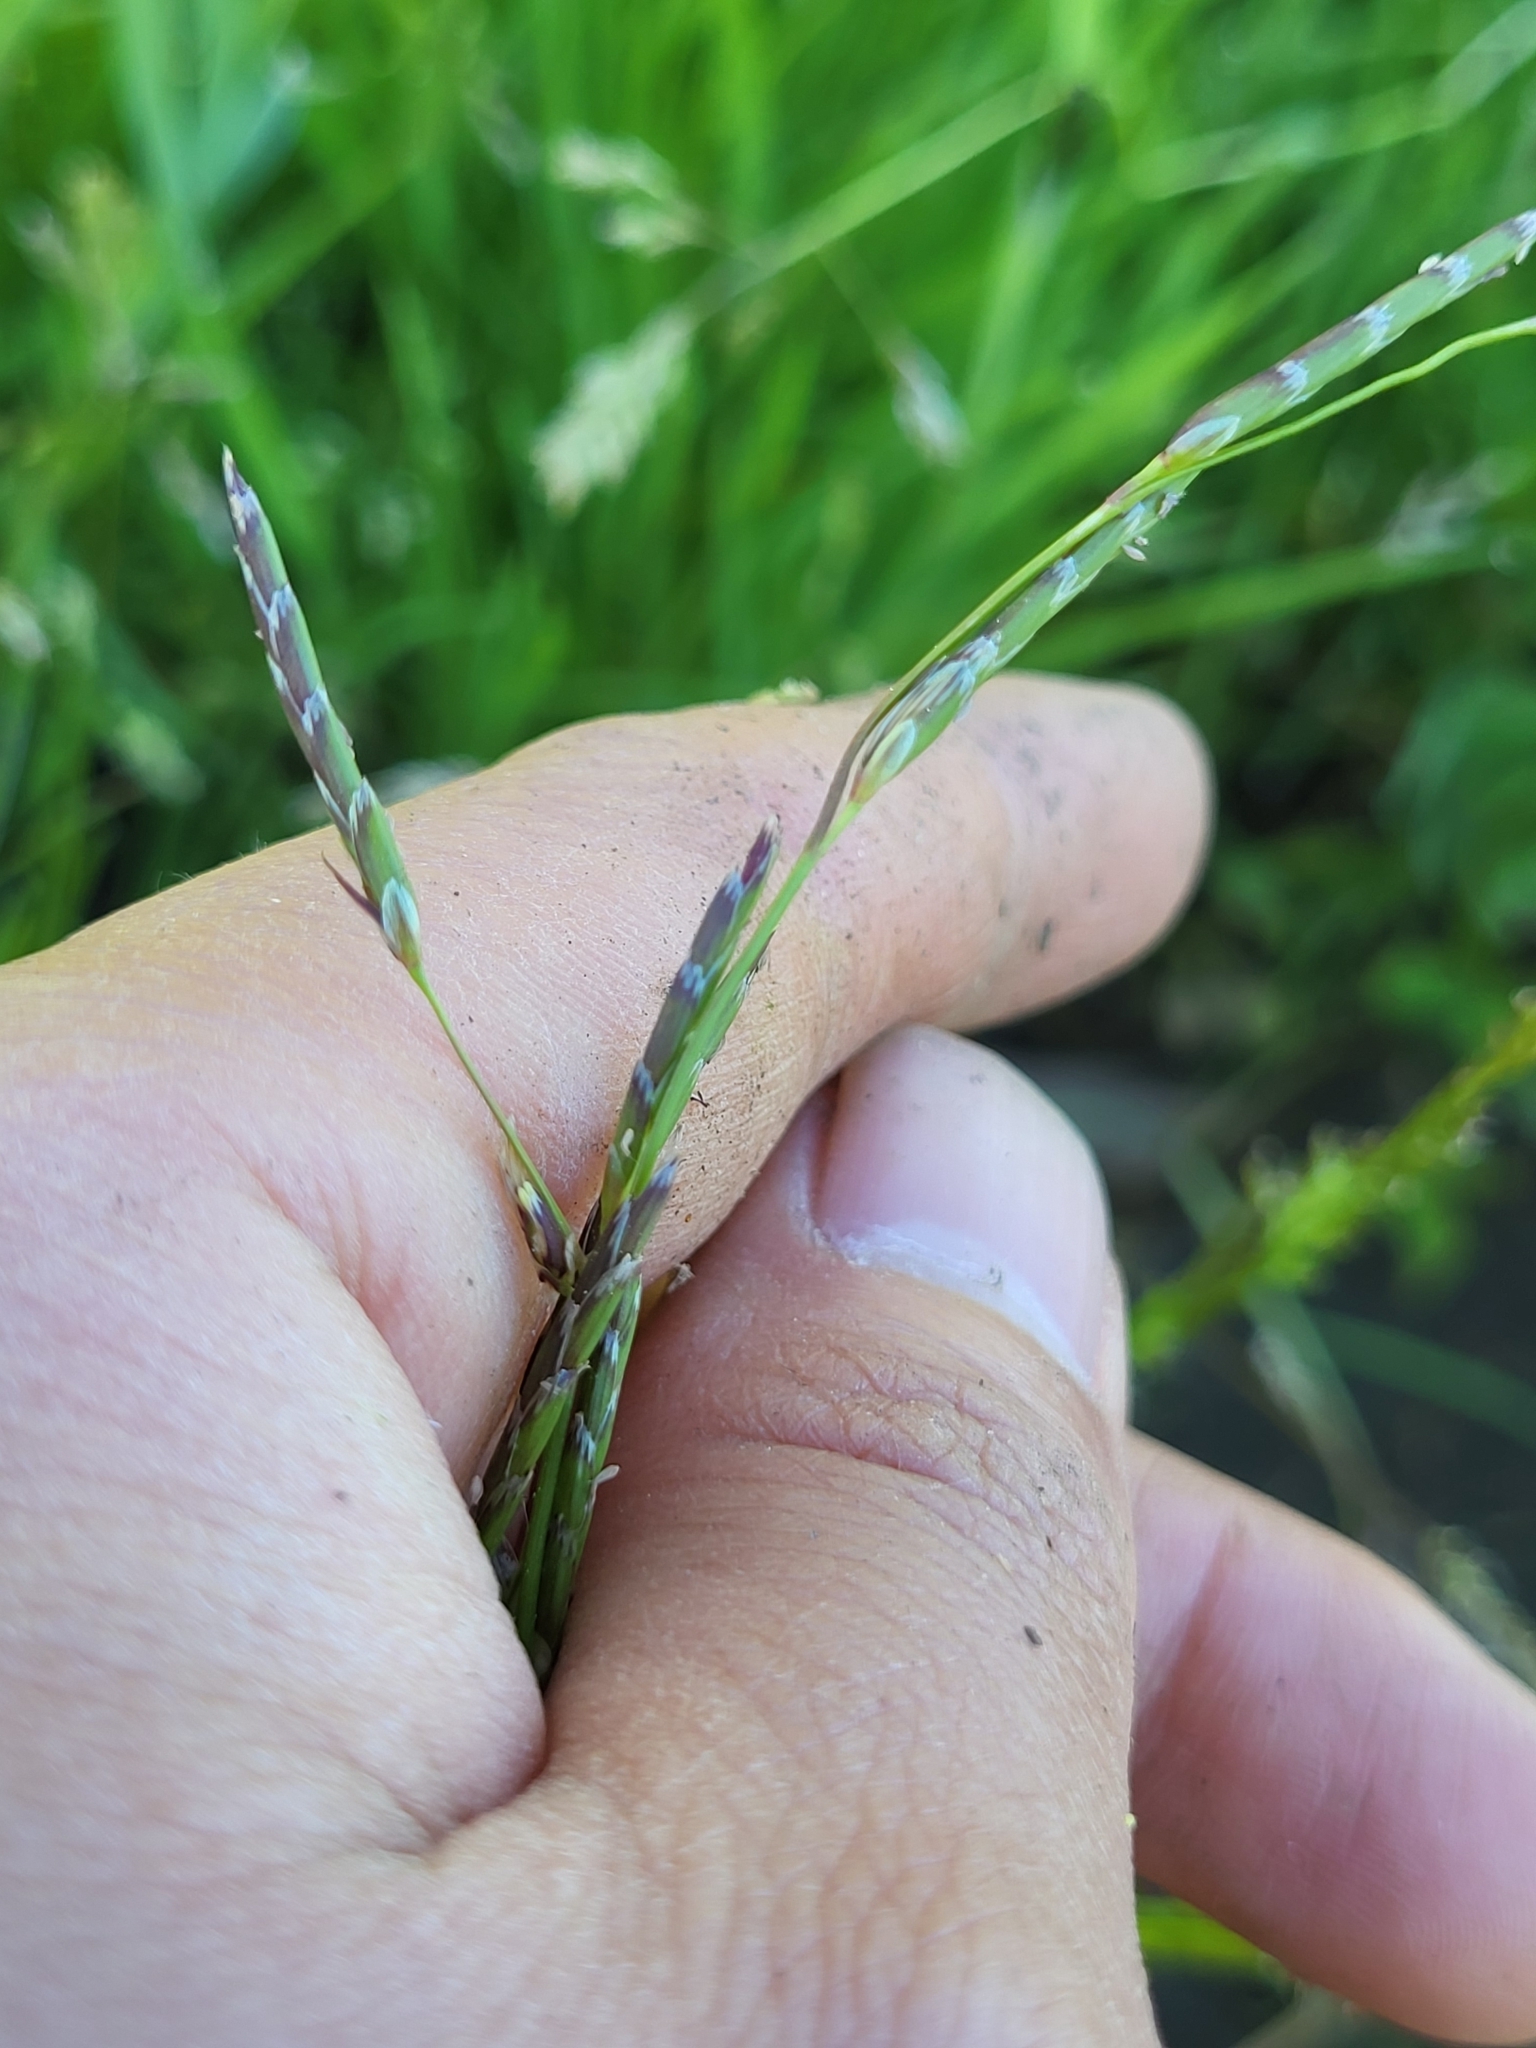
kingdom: Plantae
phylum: Tracheophyta
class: Liliopsida
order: Poales
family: Poaceae
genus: Glyceria
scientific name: Glyceria declinata
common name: Small sweet-grass
